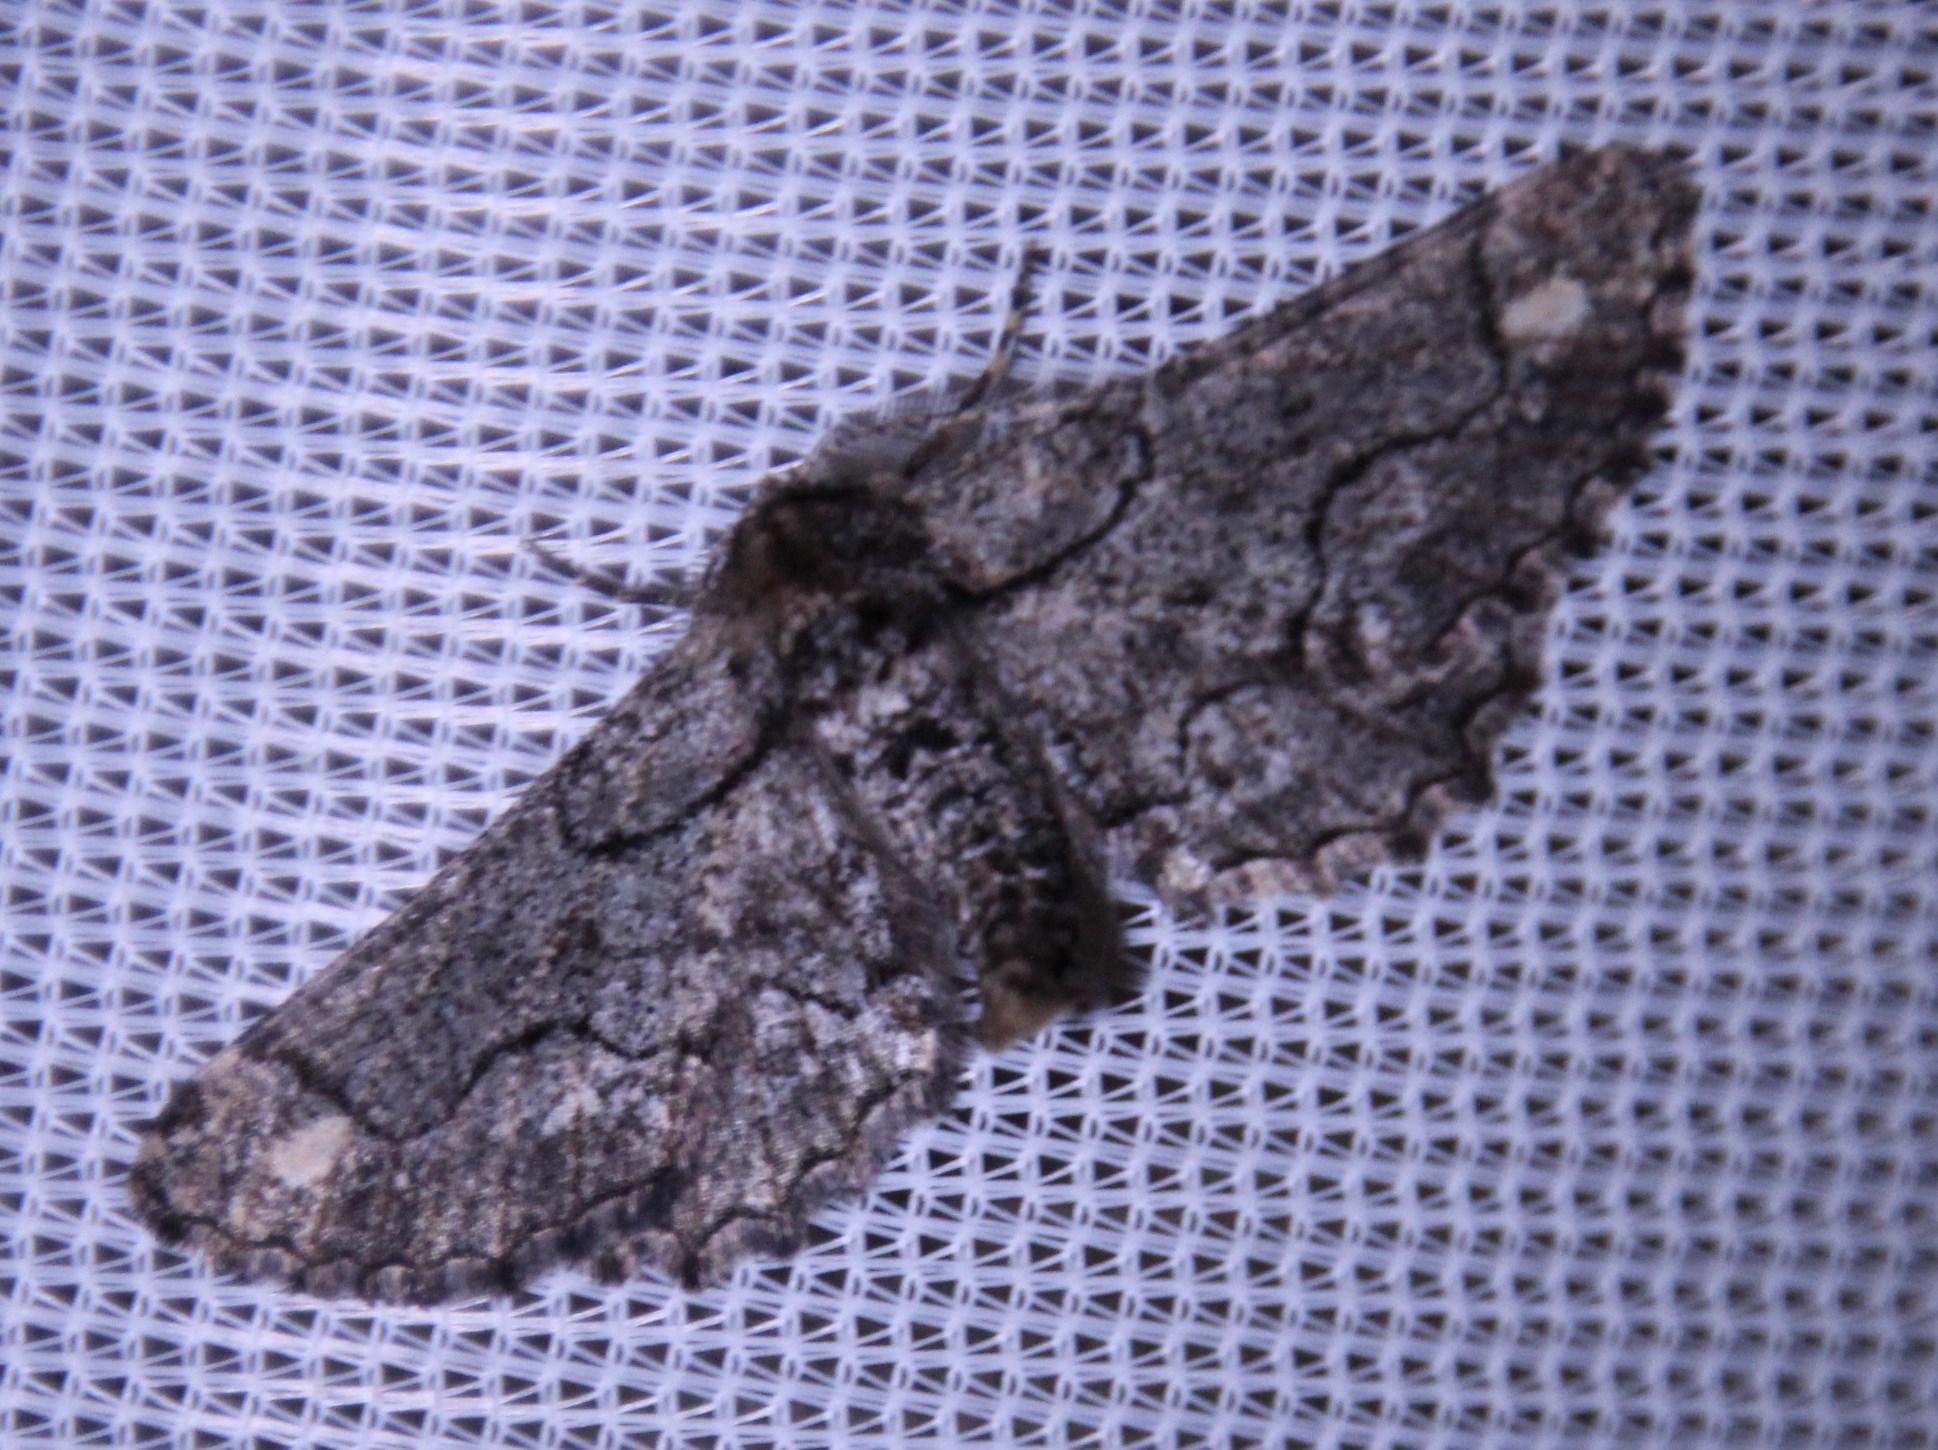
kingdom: Animalia
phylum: Arthropoda
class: Insecta
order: Lepidoptera
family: Geometridae
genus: Omphalucha
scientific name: Omphalucha albosignata
